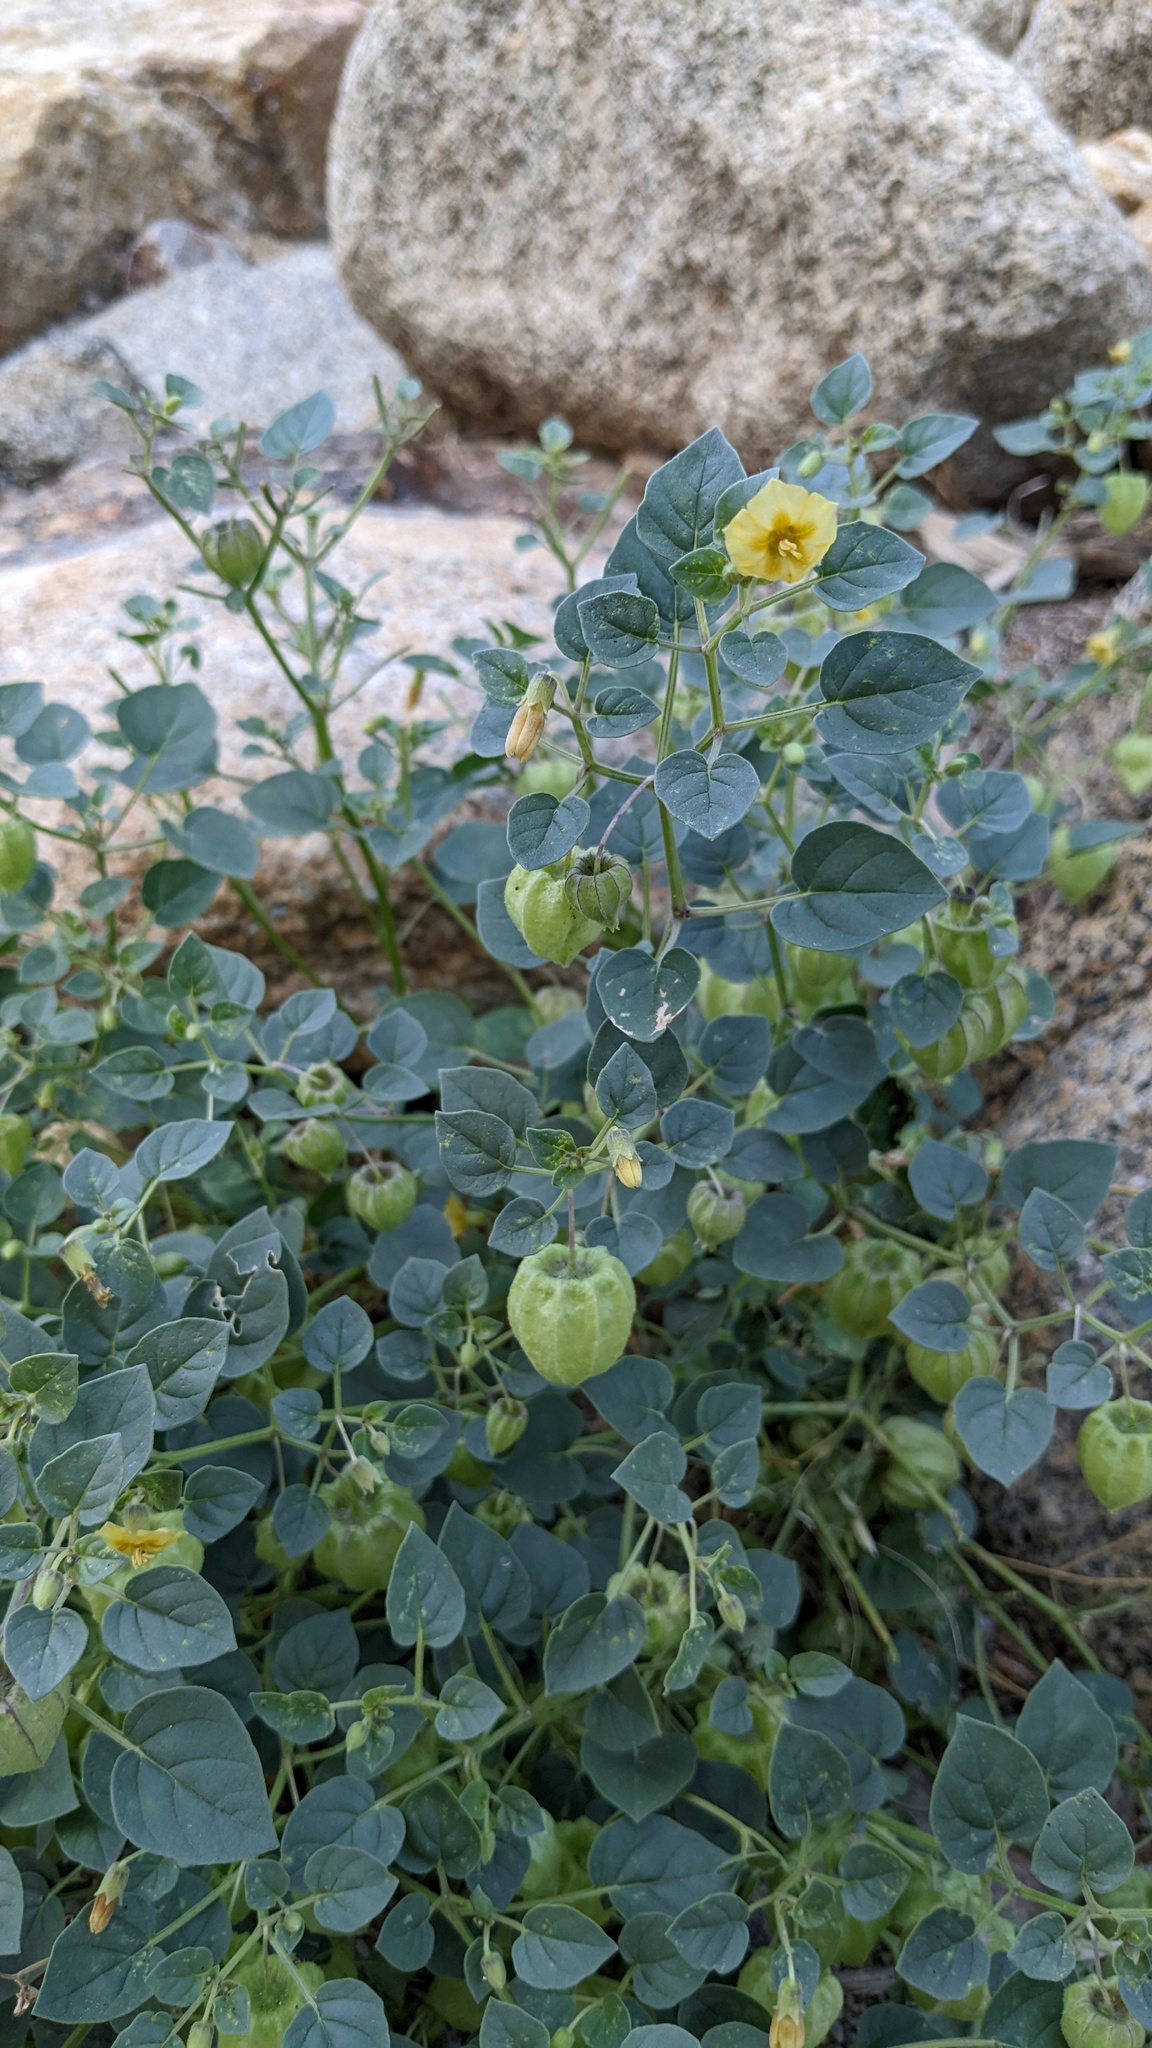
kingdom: Plantae
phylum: Tracheophyta
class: Magnoliopsida
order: Solanales
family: Solanaceae
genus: Physalis
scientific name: Physalis crassifolia
